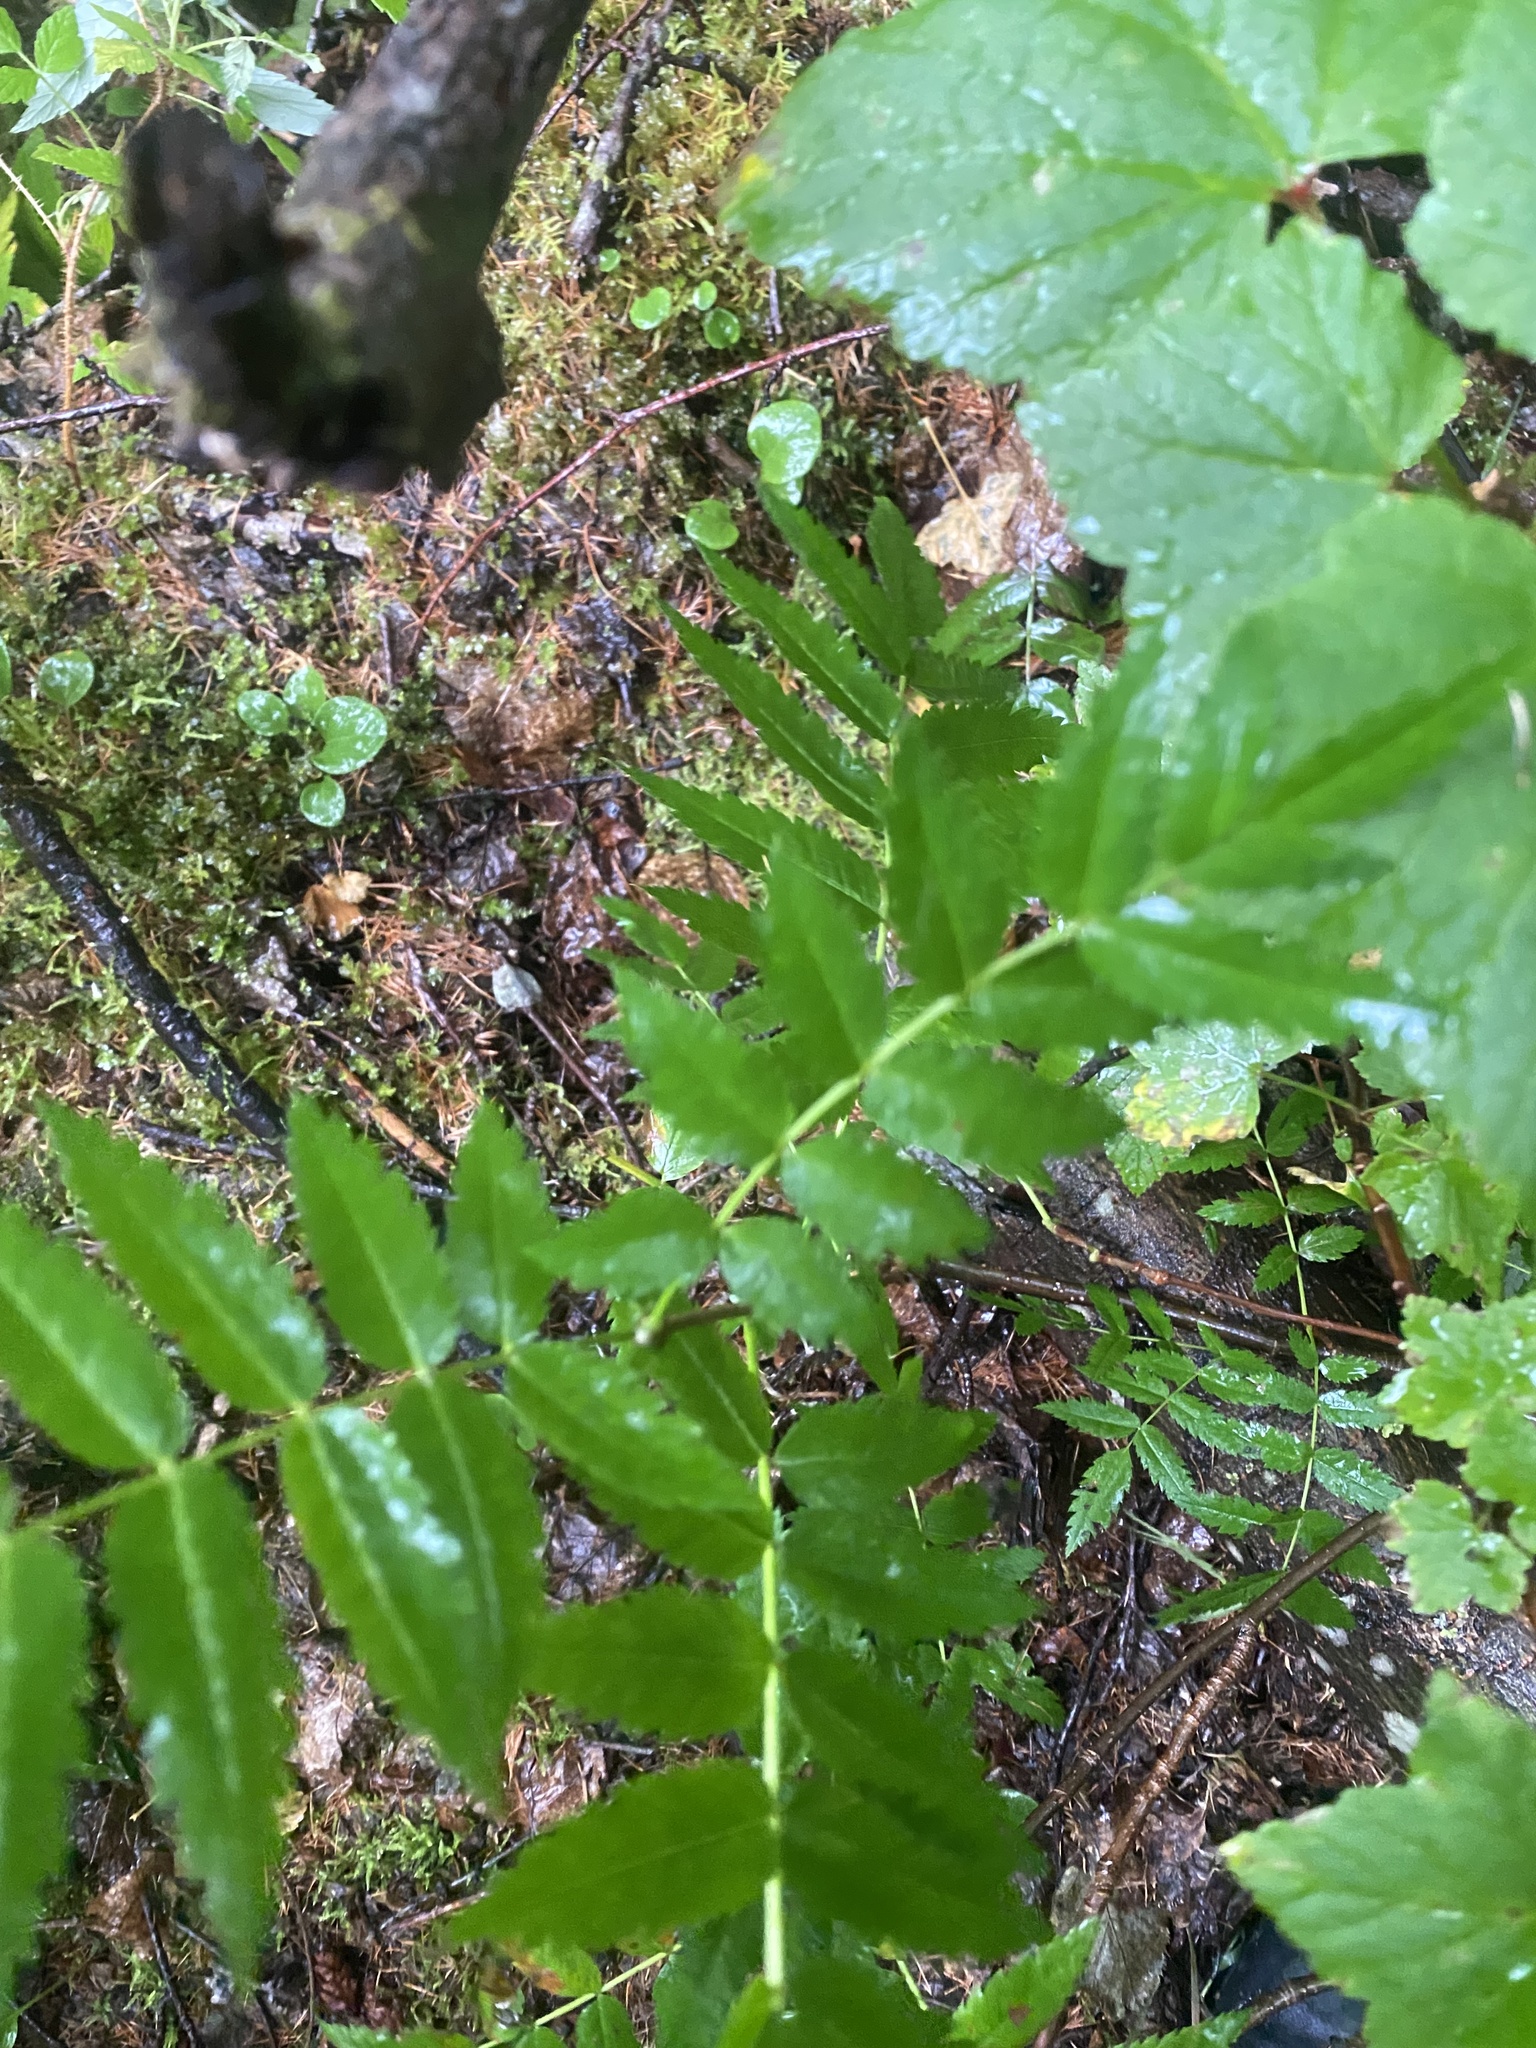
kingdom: Plantae
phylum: Tracheophyta
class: Magnoliopsida
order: Rosales
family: Rosaceae
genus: Sorbus
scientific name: Sorbus aucuparia
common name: Rowan
